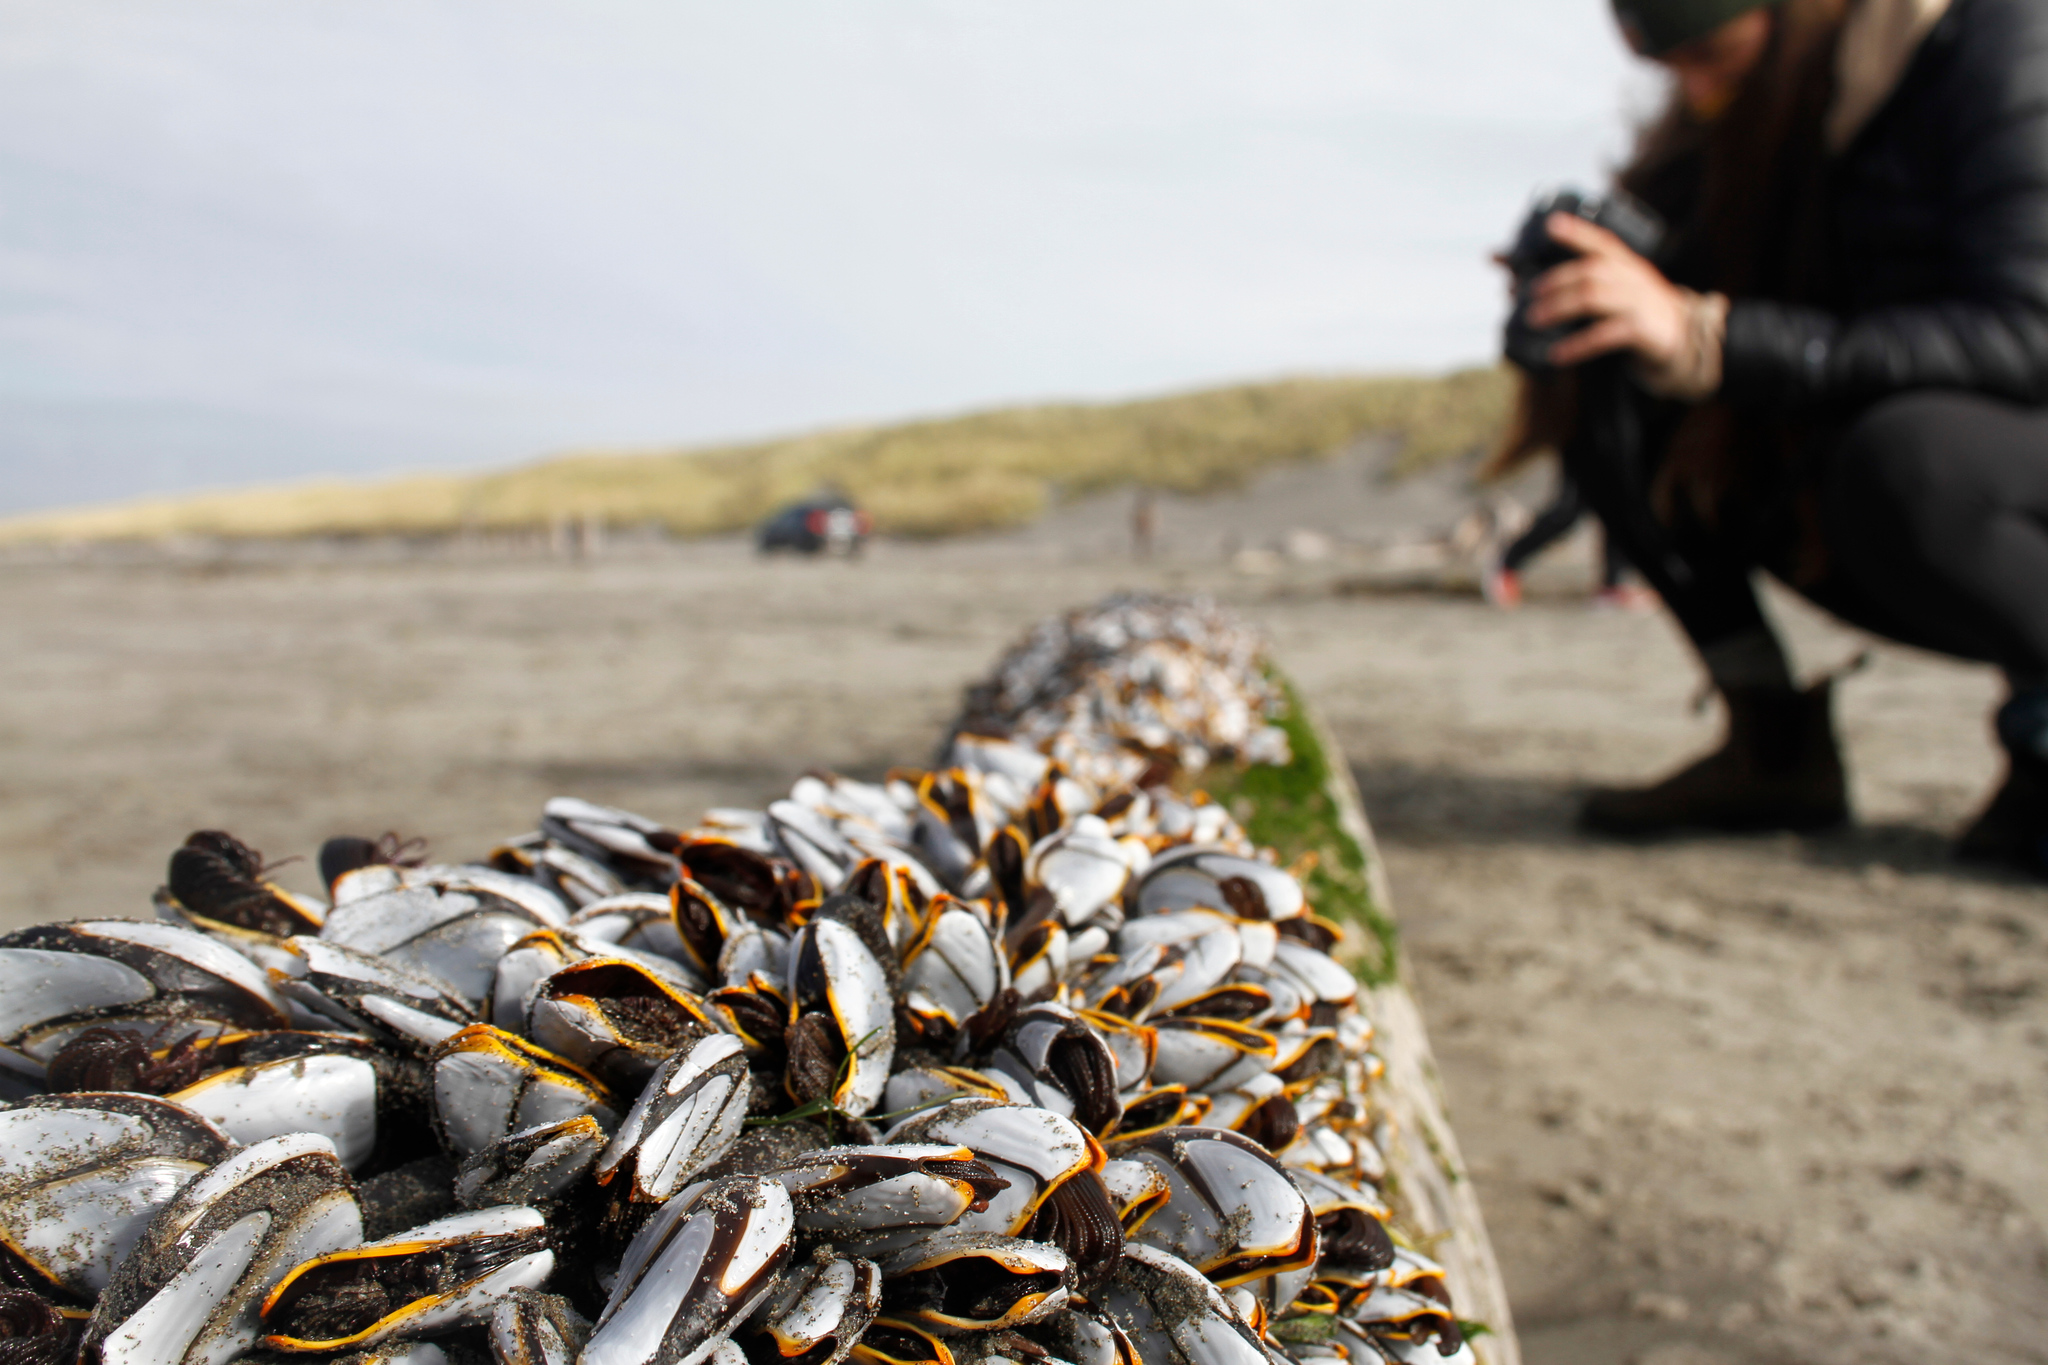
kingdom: Animalia
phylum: Arthropoda
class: Maxillopoda
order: Pedunculata
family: Lepadidae
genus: Lepas
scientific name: Lepas anatifera
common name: Common goose barnacle
